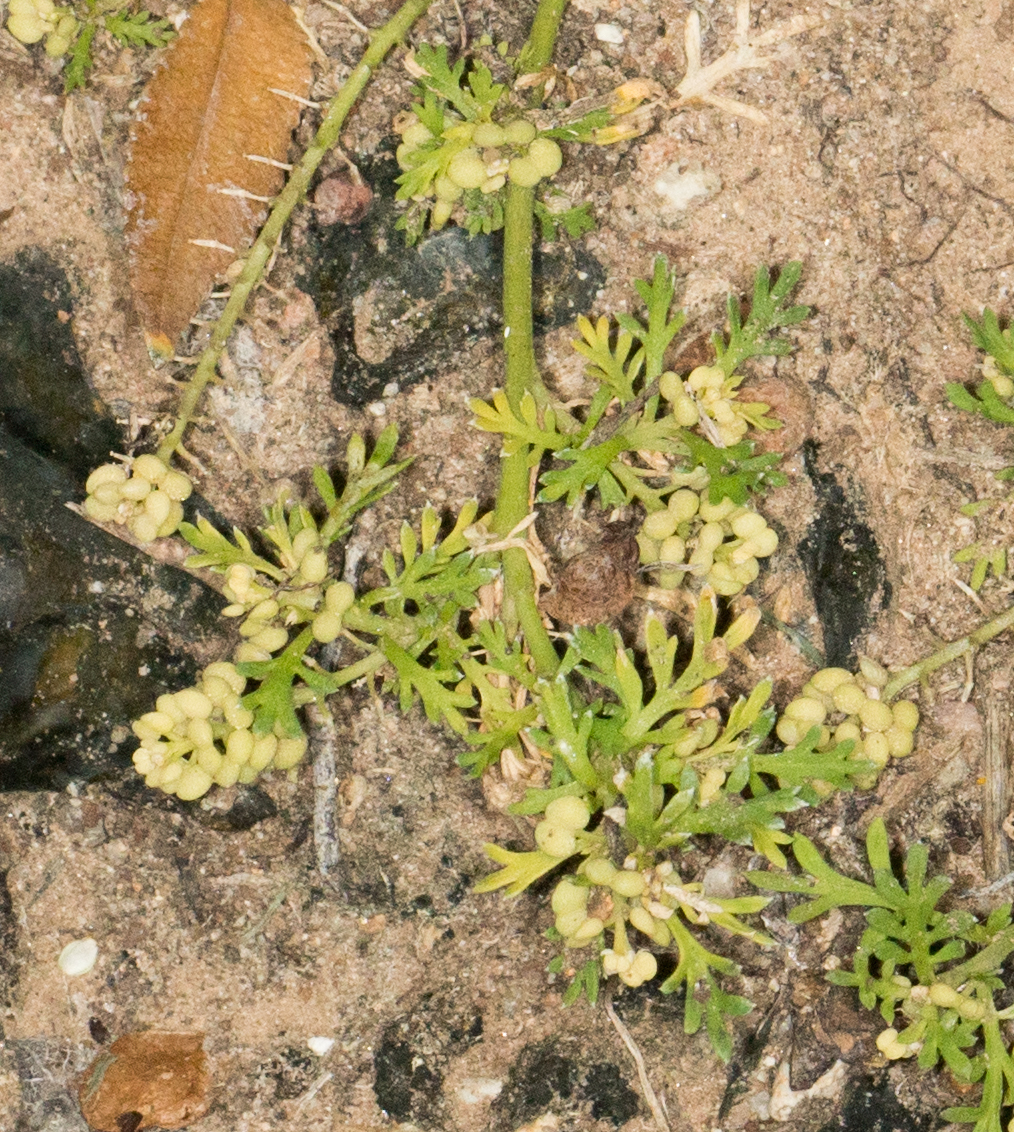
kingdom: Plantae
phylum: Tracheophyta
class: Magnoliopsida
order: Brassicales
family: Brassicaceae
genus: Lepidium
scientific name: Lepidium didymum
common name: Lesser swinecress
